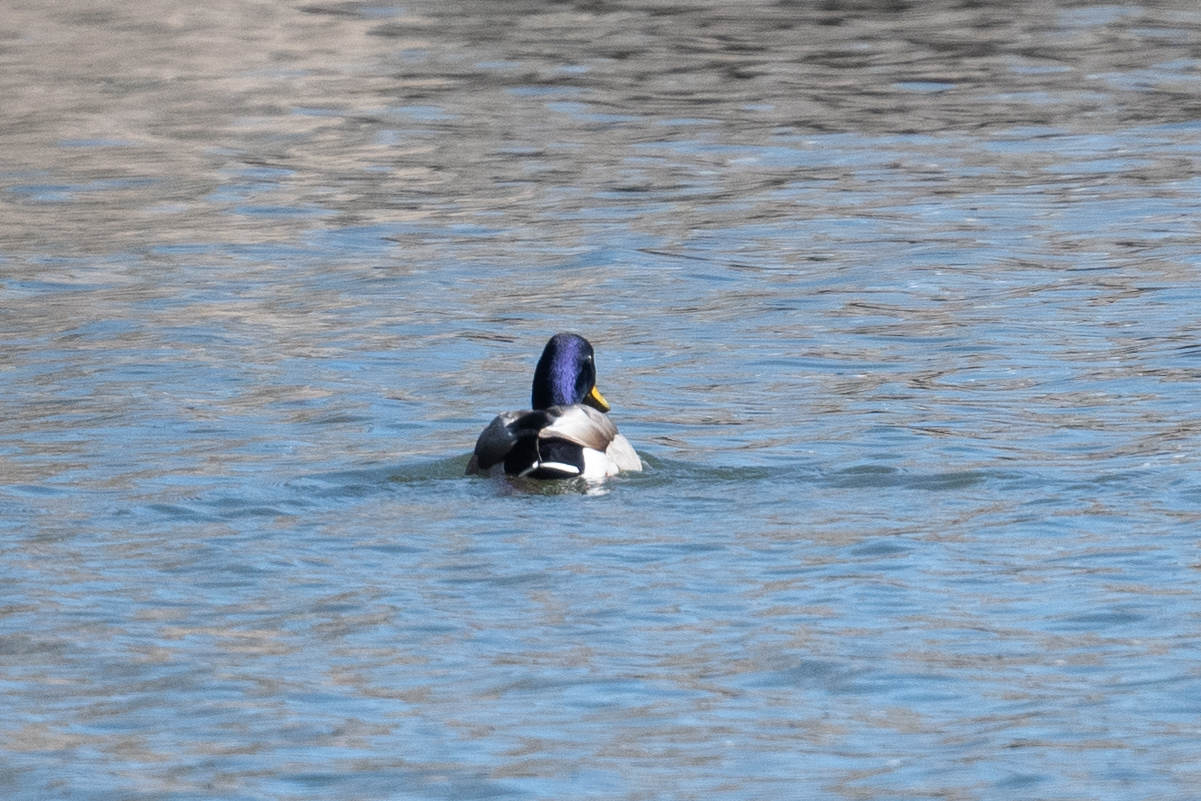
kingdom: Animalia
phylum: Chordata
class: Aves
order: Anseriformes
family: Anatidae
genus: Anas
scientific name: Anas platyrhynchos
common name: Mallard
